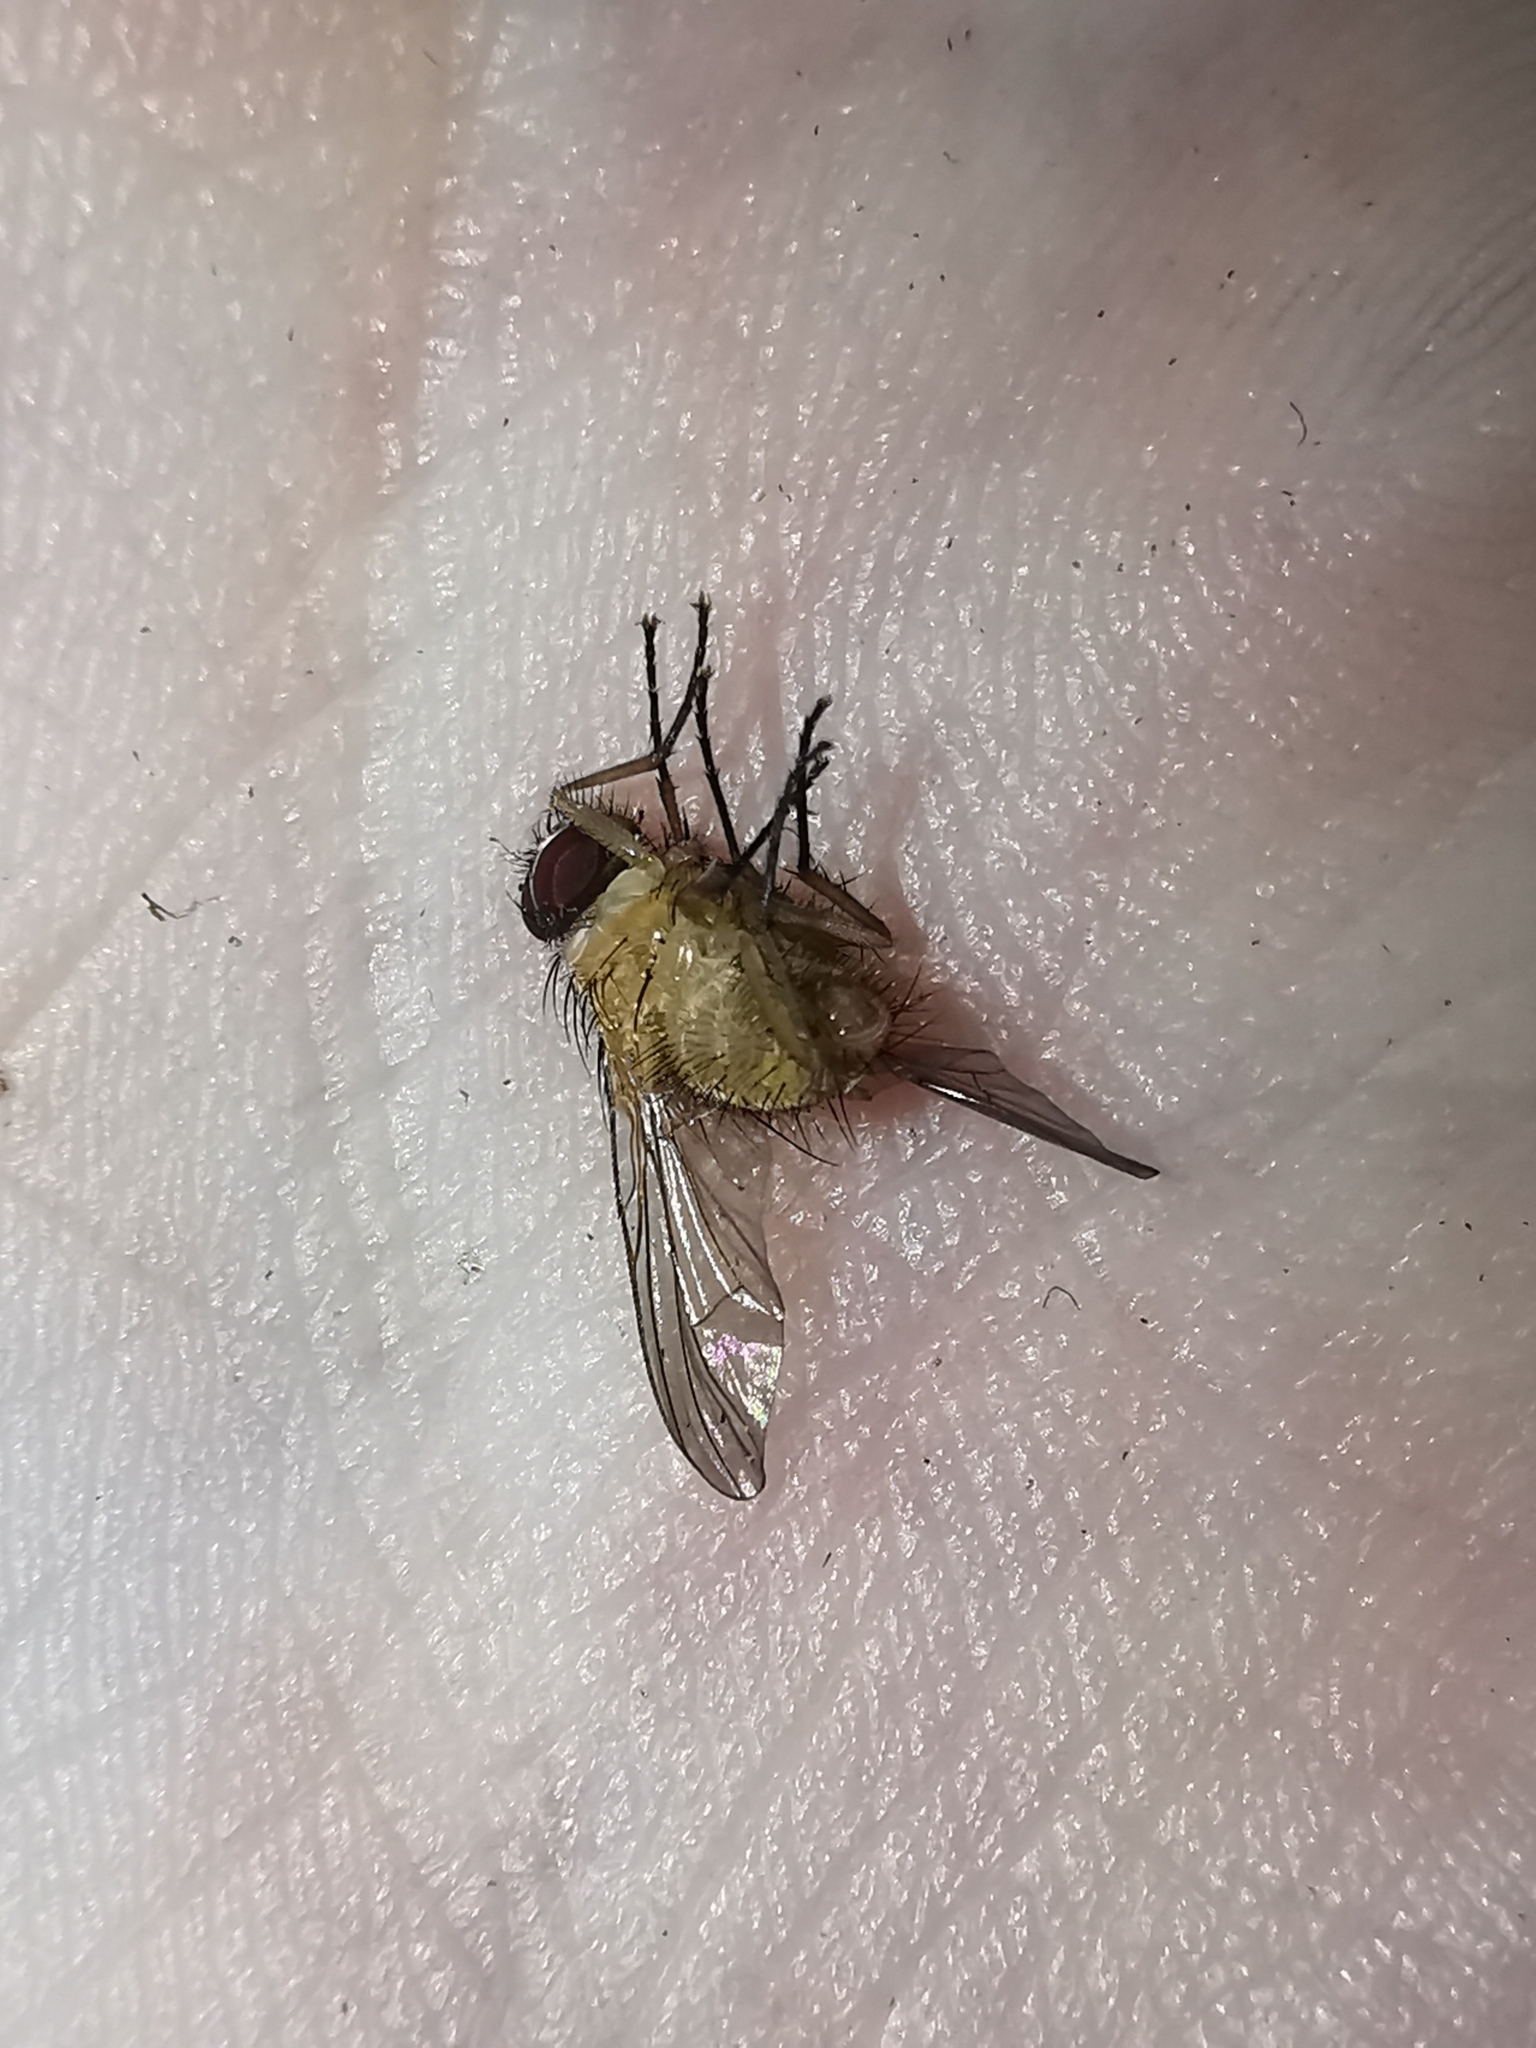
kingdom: Animalia
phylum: Arthropoda
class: Insecta
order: Diptera
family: Muscidae
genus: Phaonia
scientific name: Phaonia pallida
